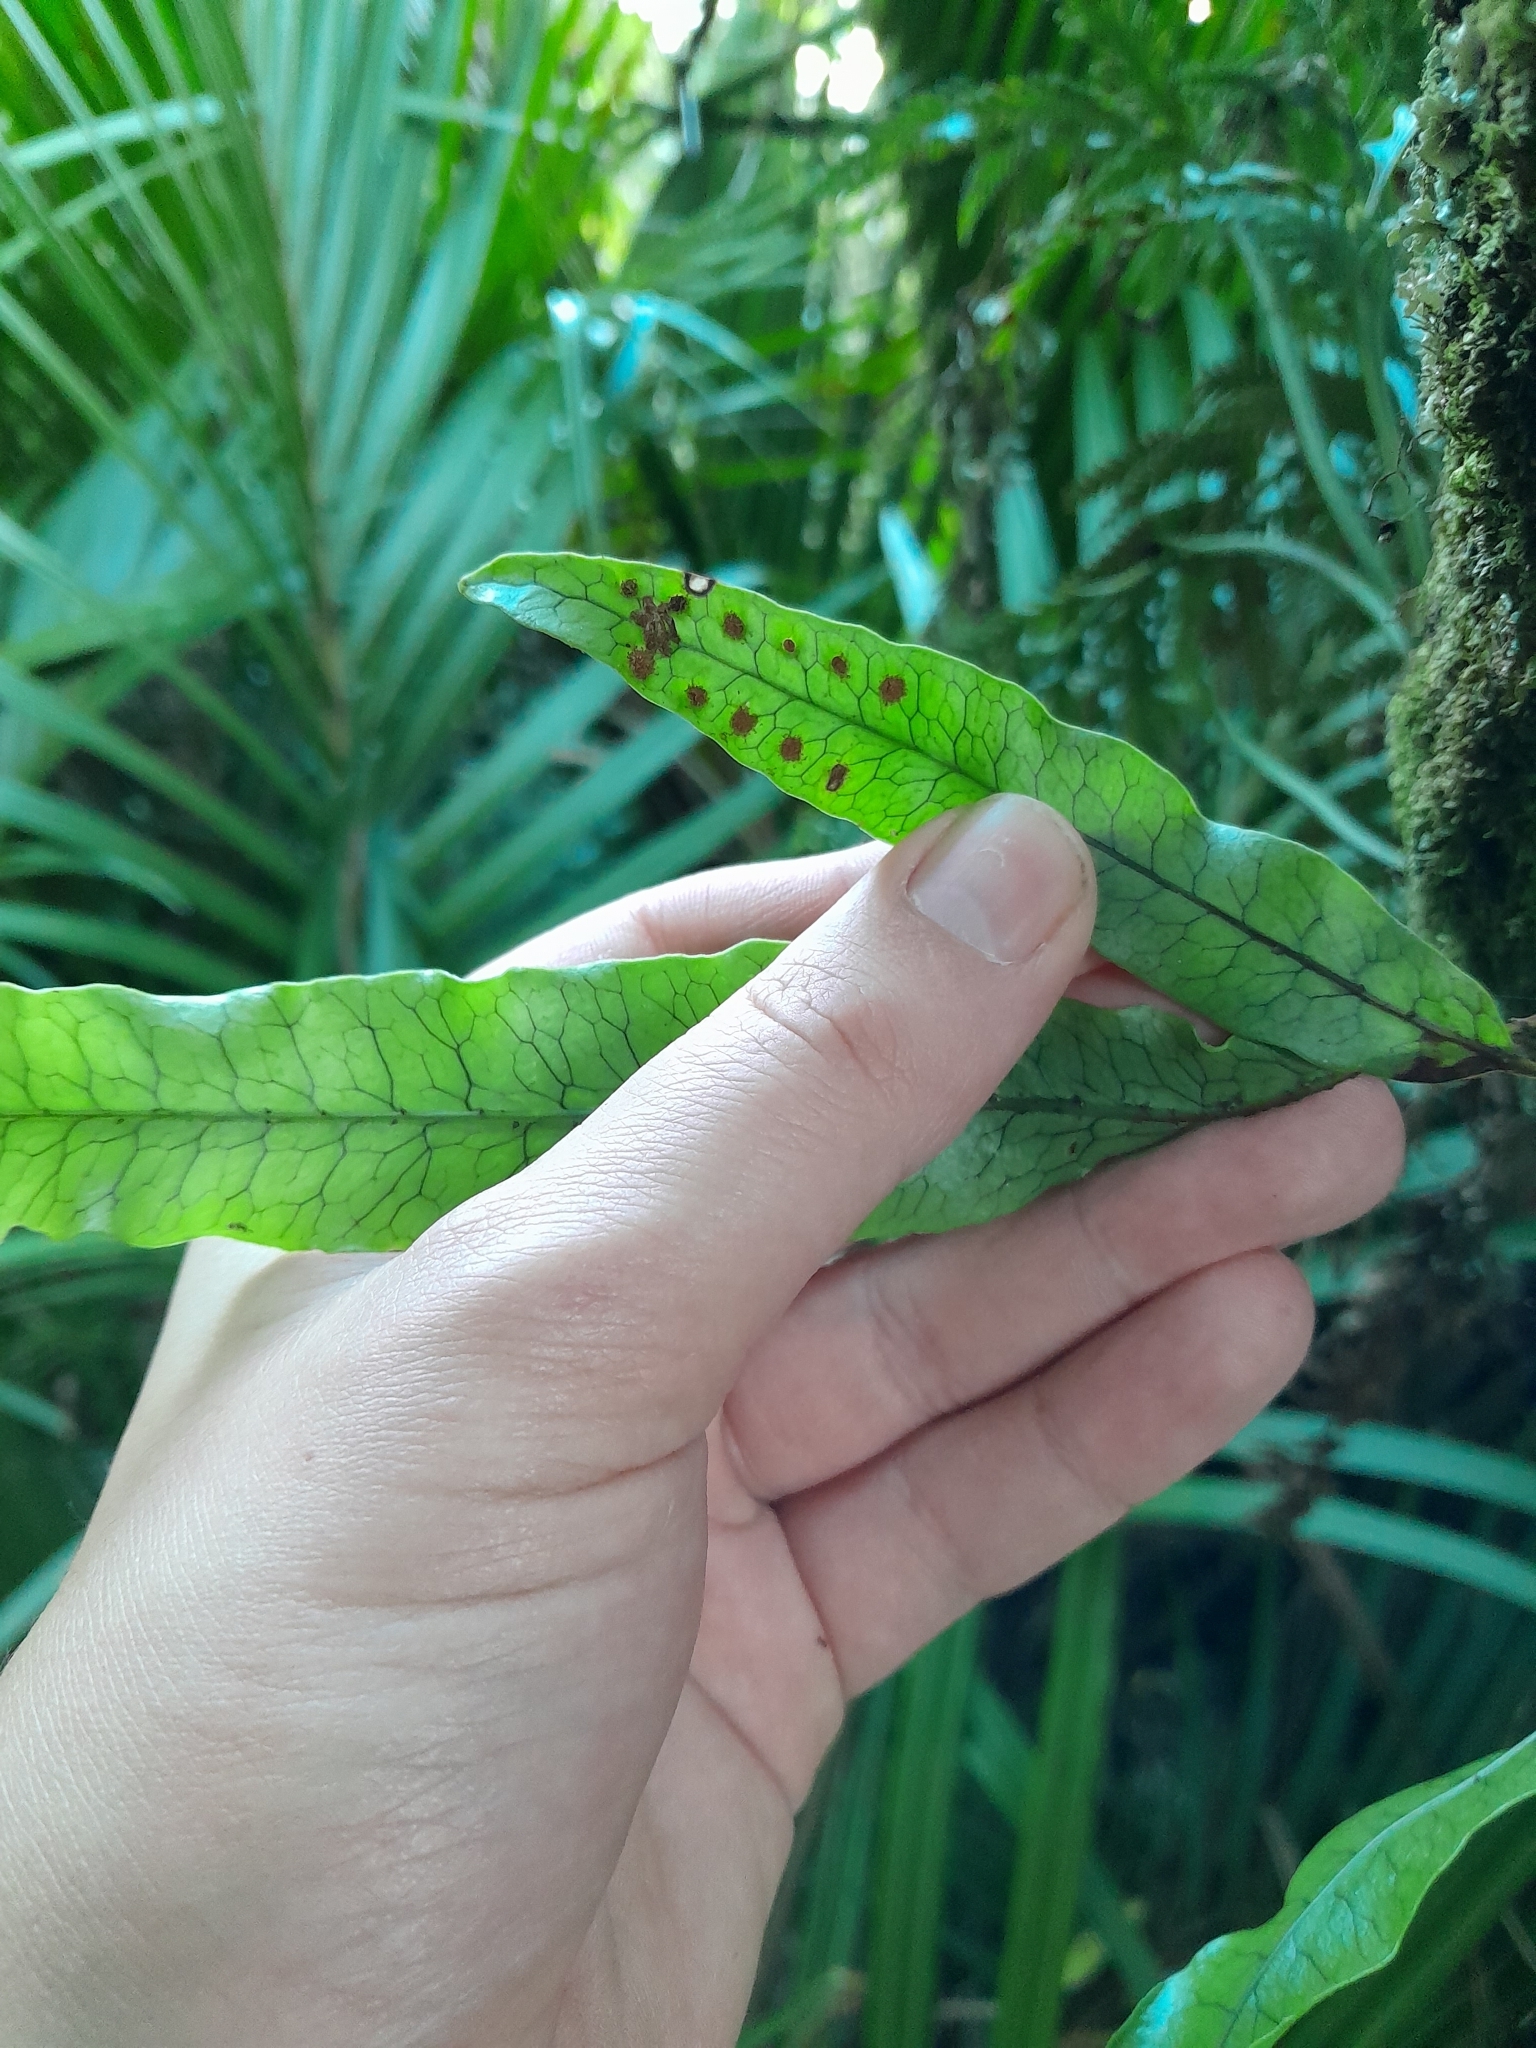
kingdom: Plantae
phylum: Tracheophyta
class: Polypodiopsida
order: Polypodiales
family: Polypodiaceae
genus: Lecanopteris
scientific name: Lecanopteris pustulata
